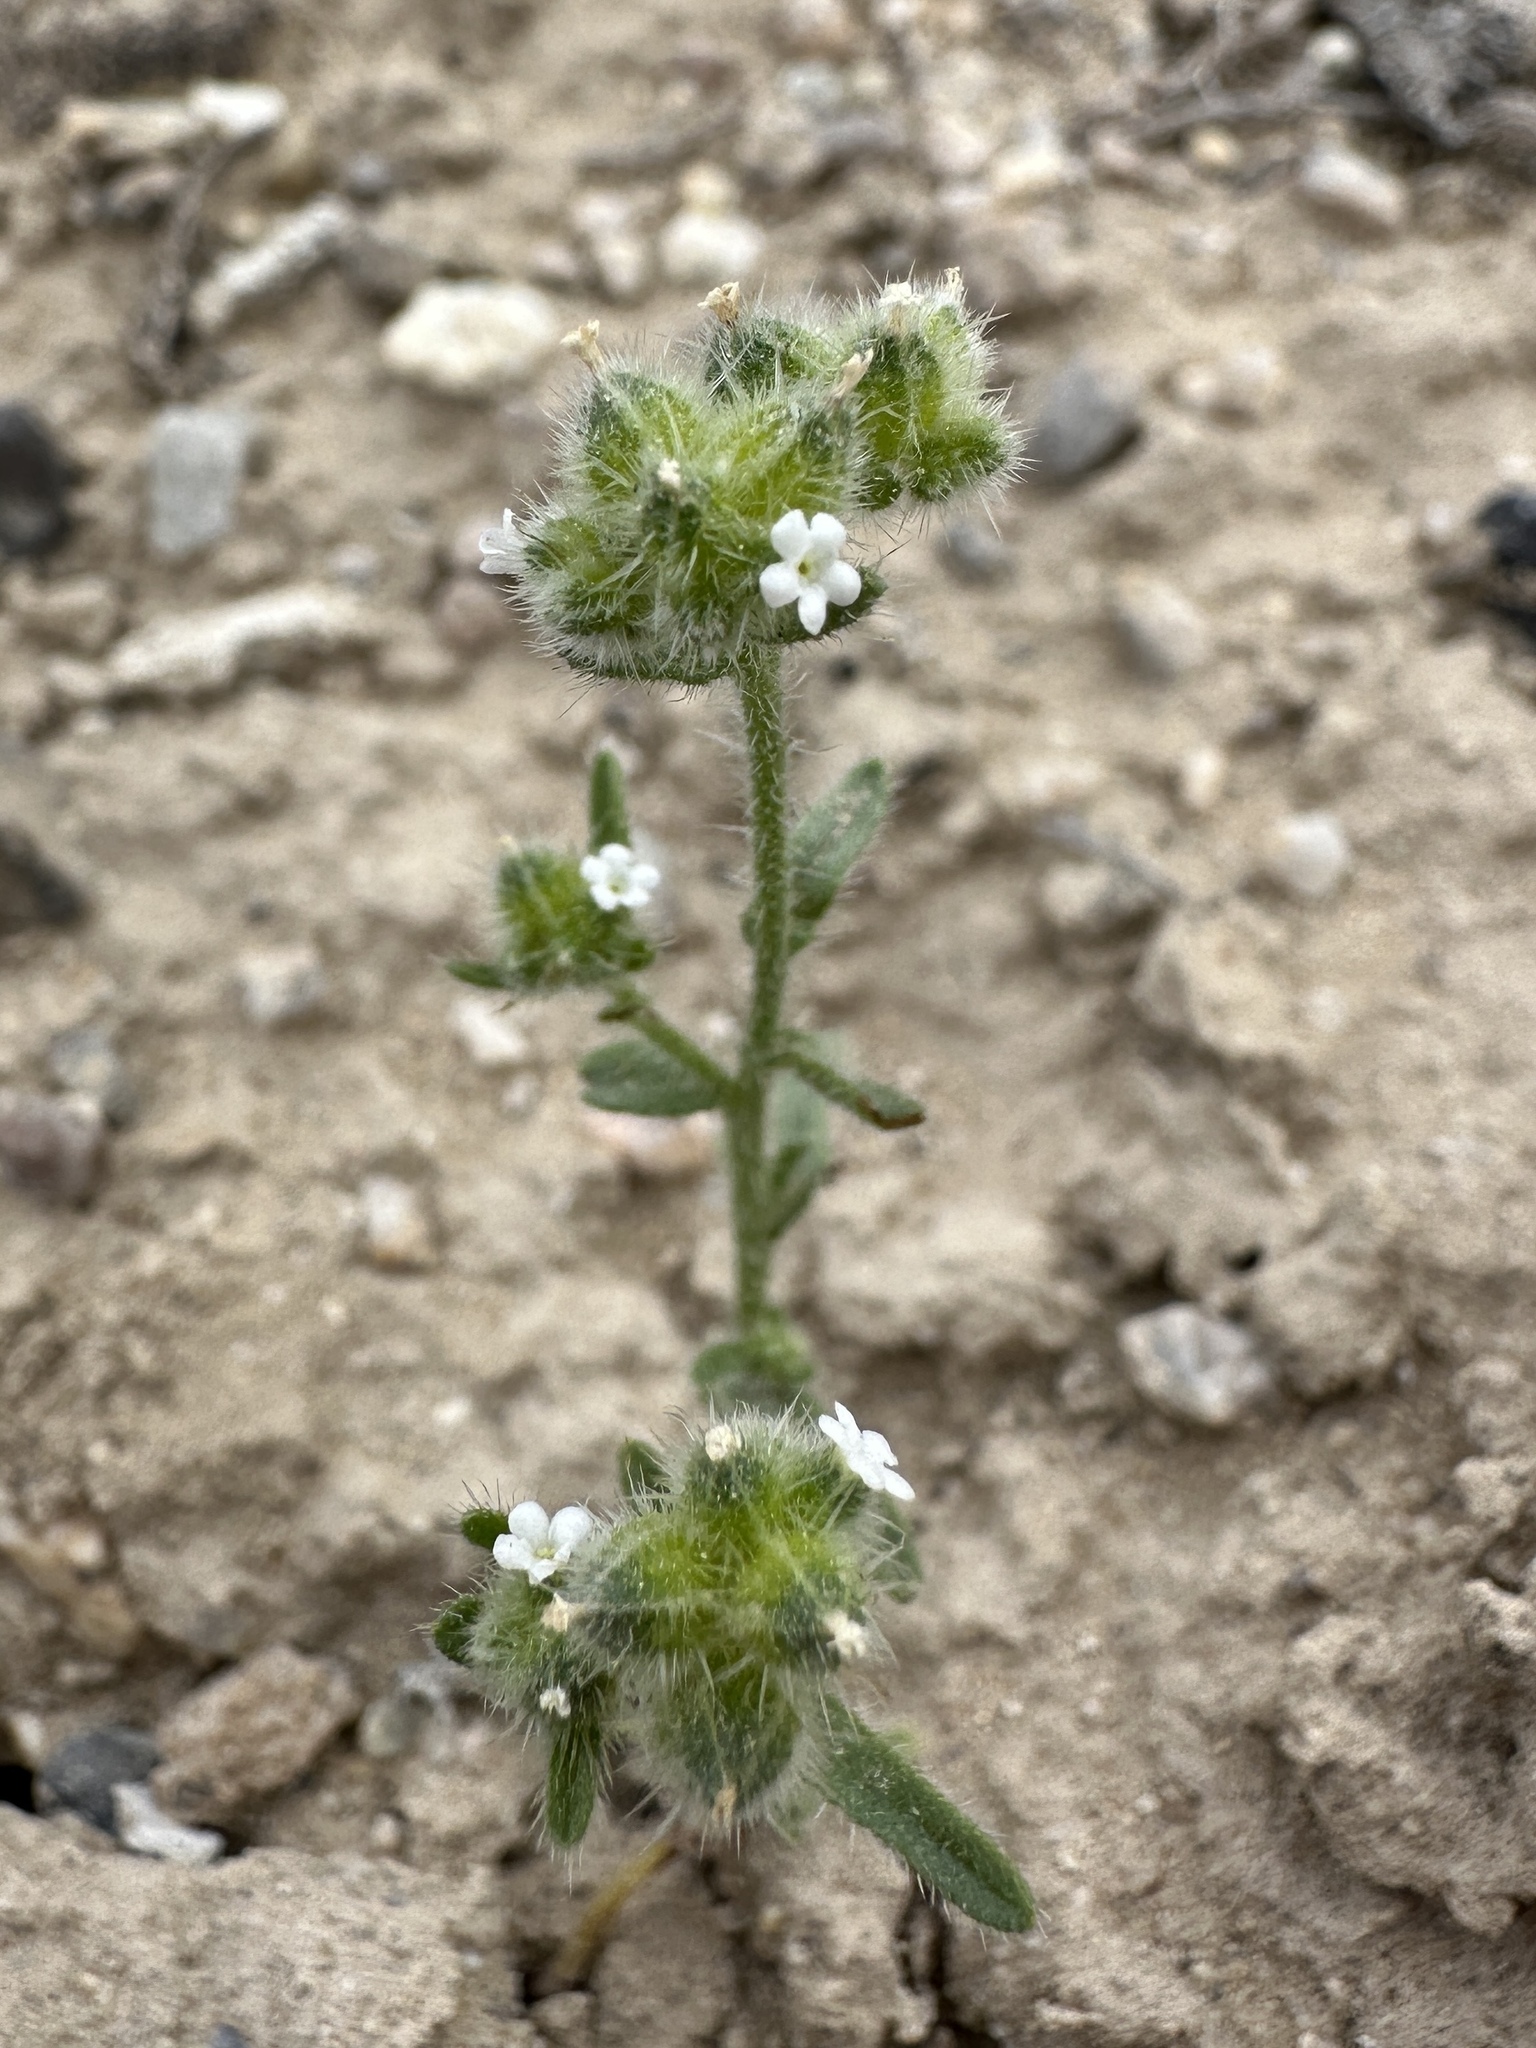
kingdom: Plantae
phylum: Tracheophyta
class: Magnoliopsida
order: Boraginales
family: Boraginaceae
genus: Cryptantha
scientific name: Cryptantha pterocarya
